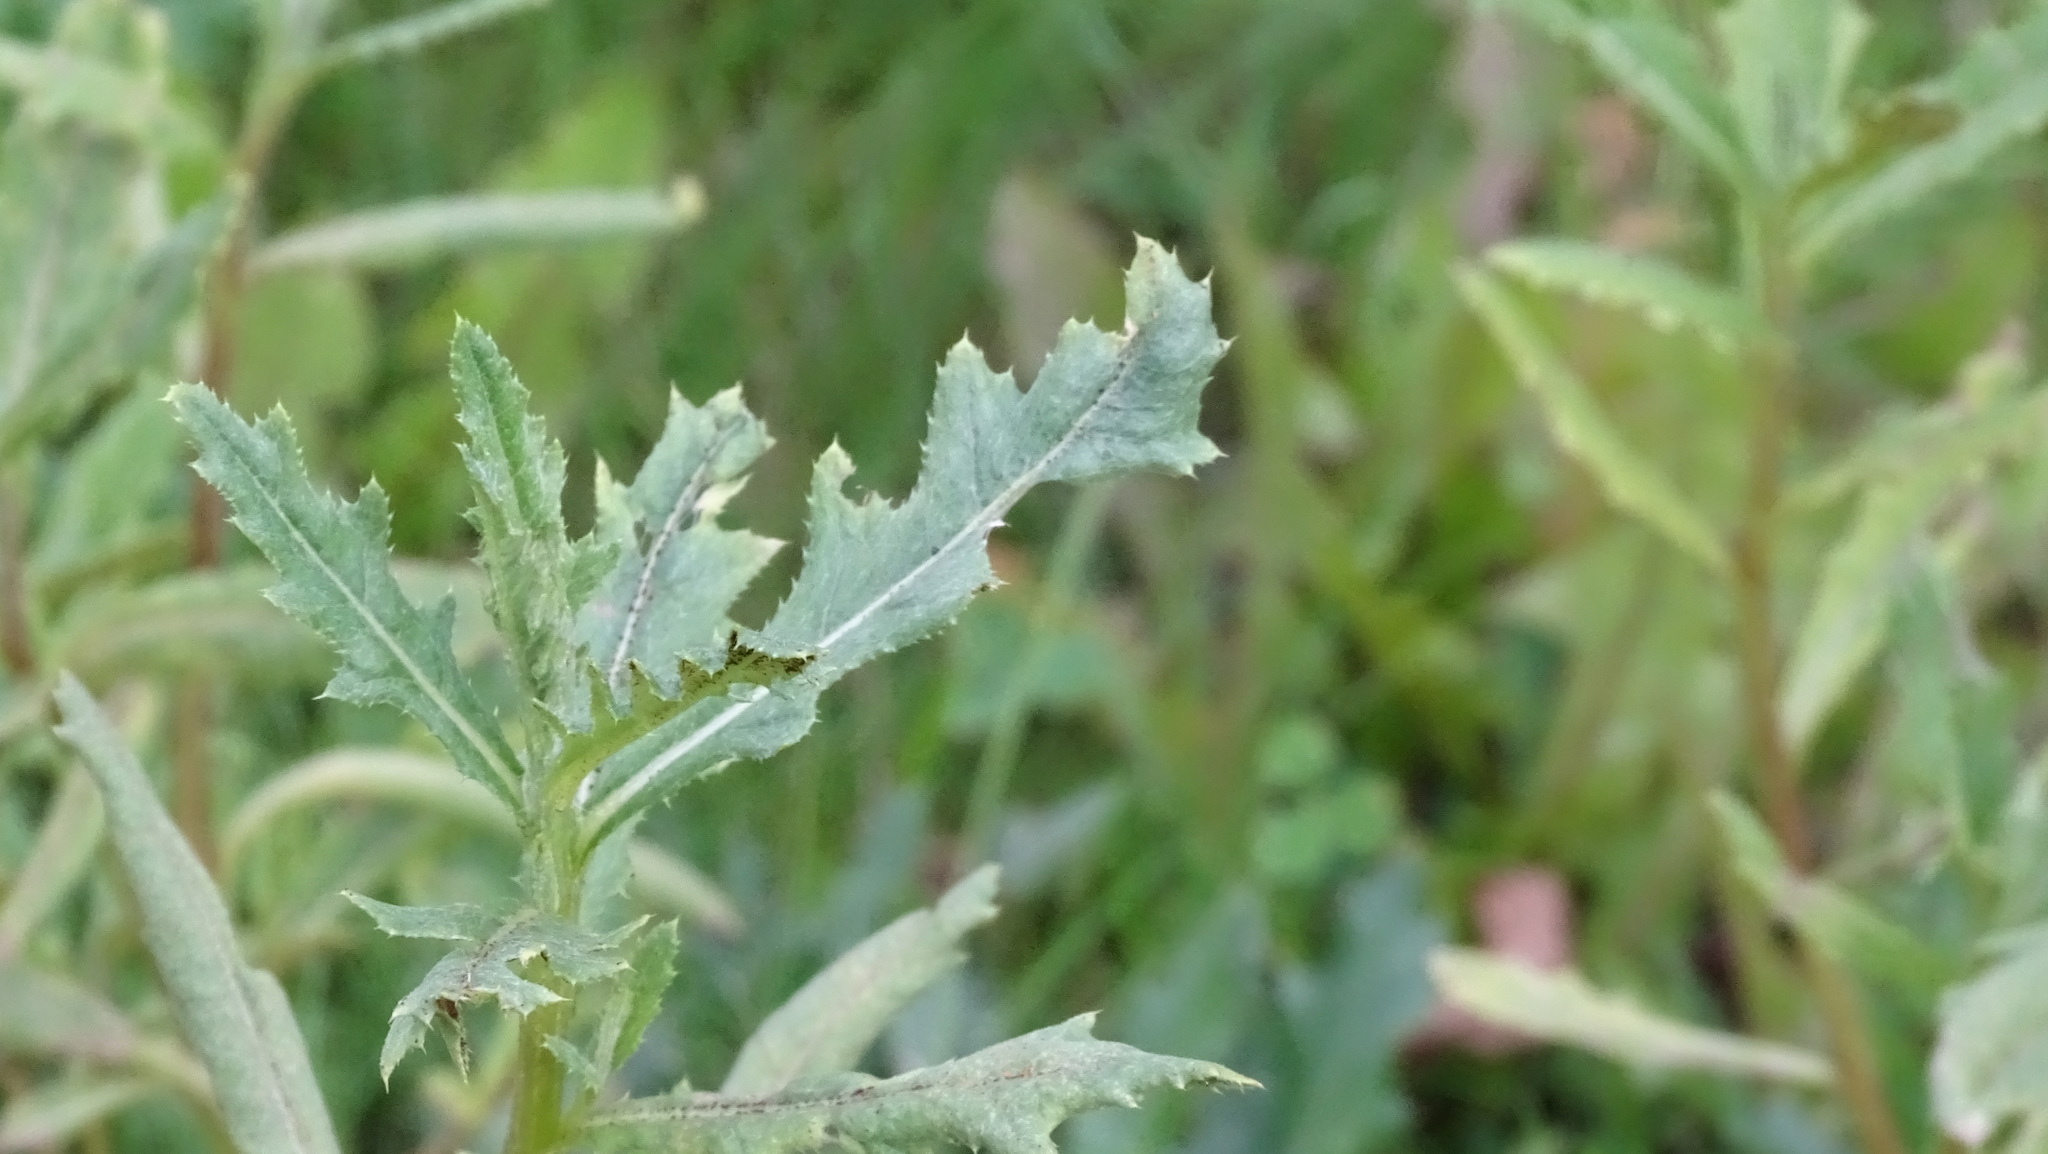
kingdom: Plantae
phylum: Tracheophyta
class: Magnoliopsida
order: Asterales
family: Asteraceae
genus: Cirsium
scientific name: Cirsium arvense
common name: Creeping thistle
